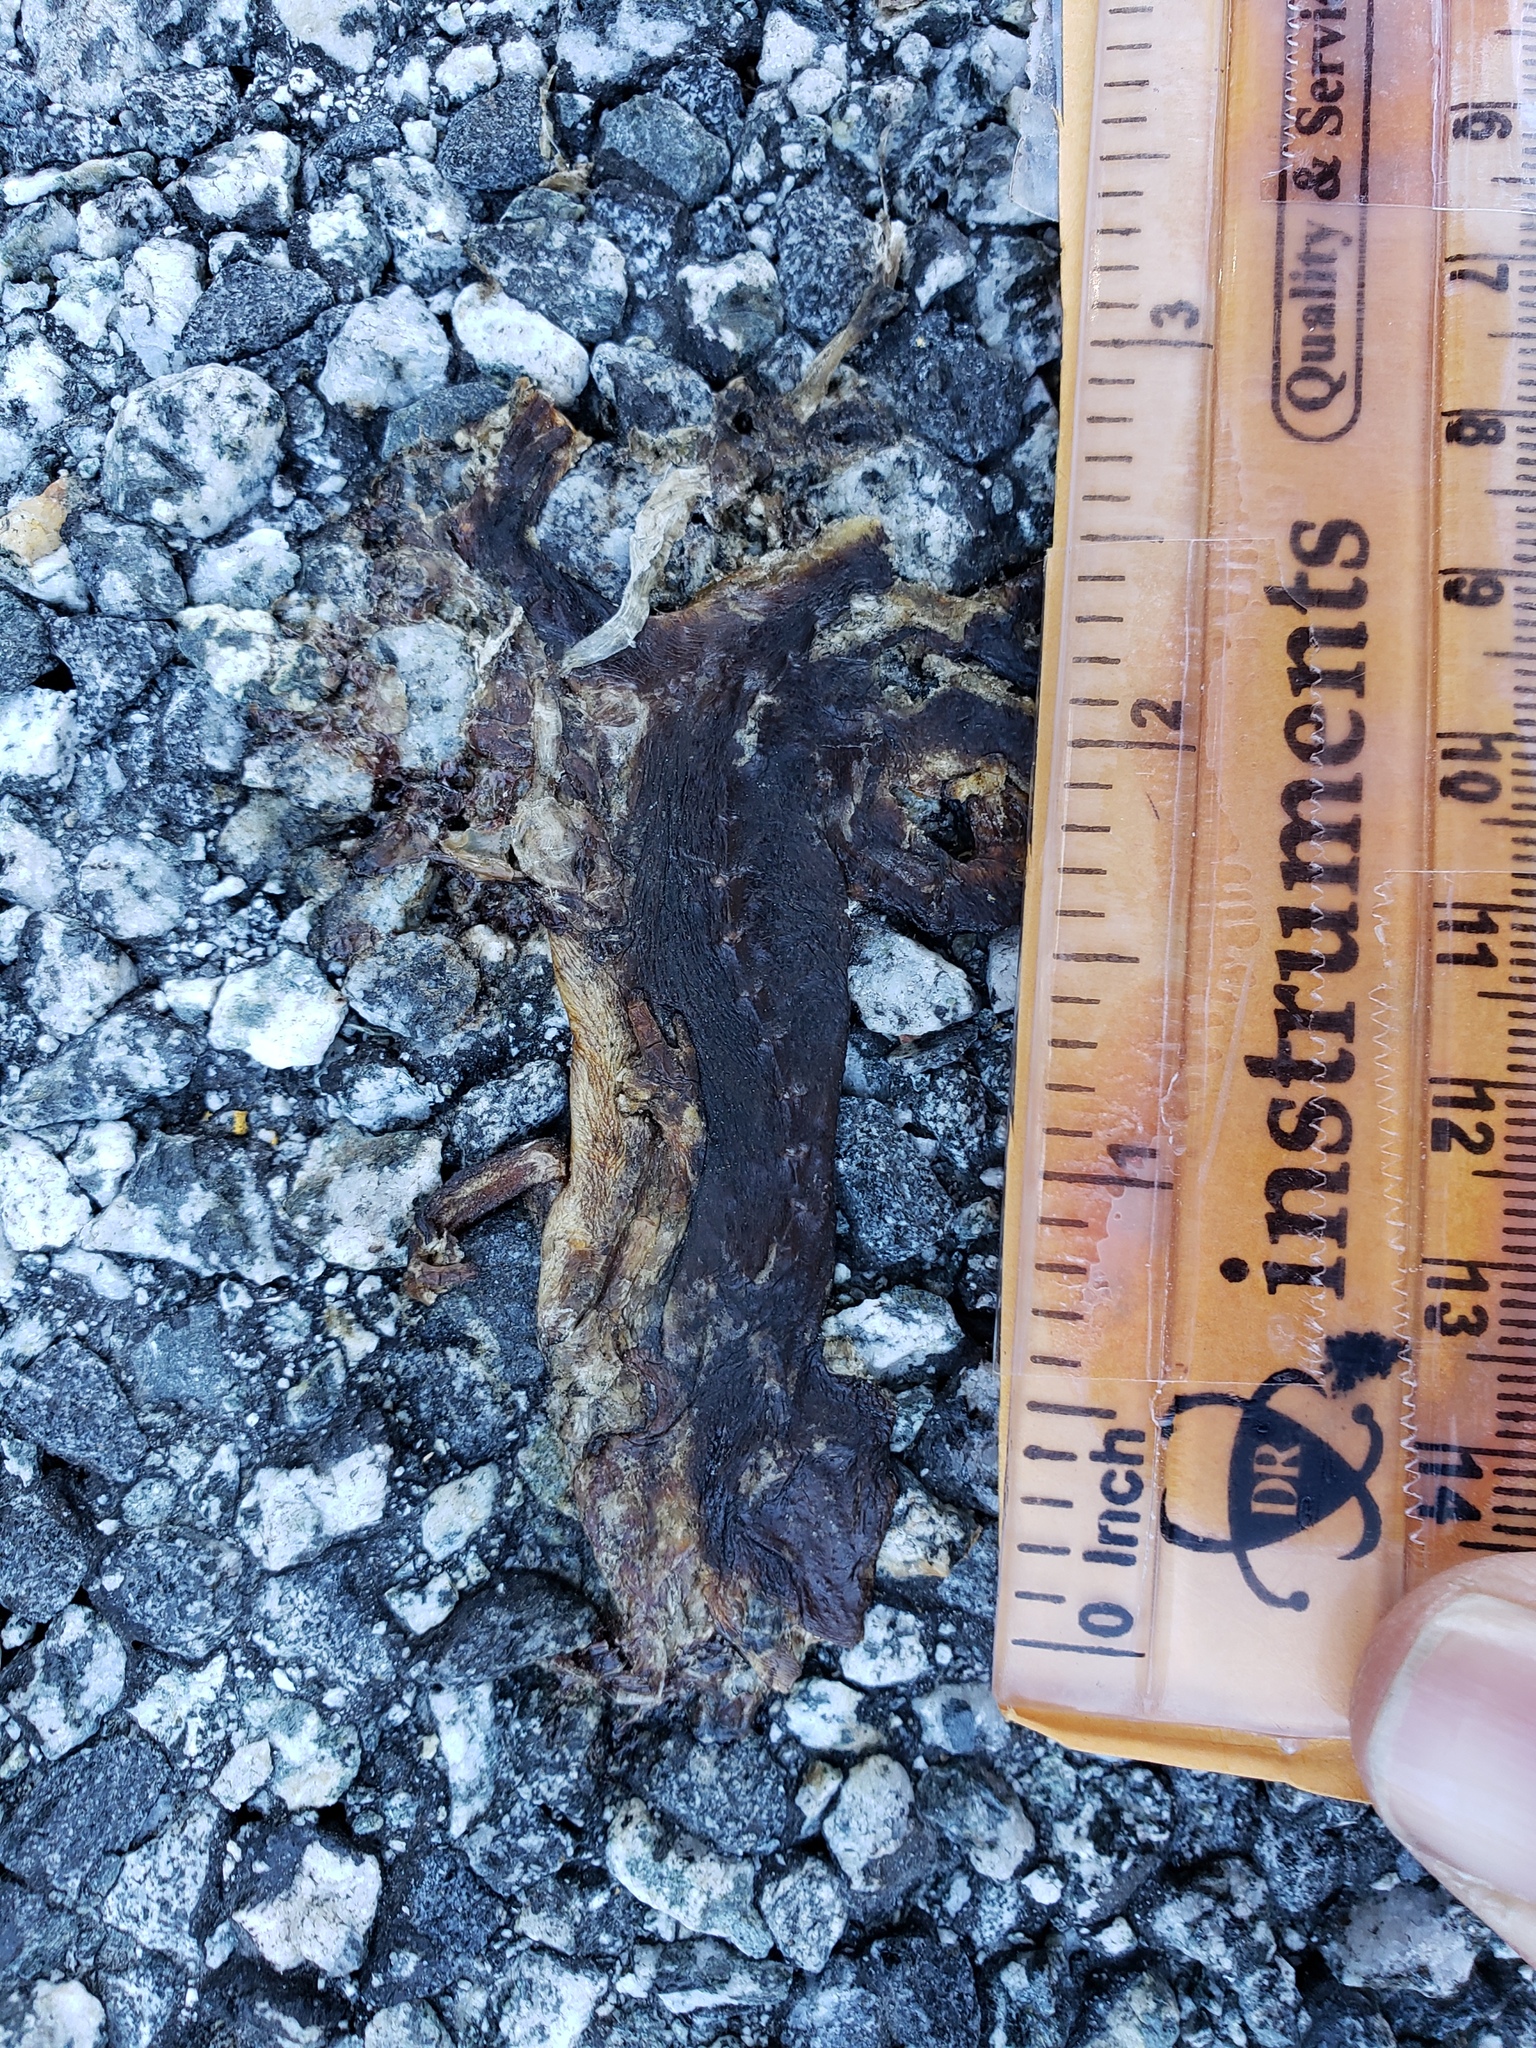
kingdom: Animalia
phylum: Chordata
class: Amphibia
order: Caudata
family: Salamandridae
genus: Taricha
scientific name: Taricha
